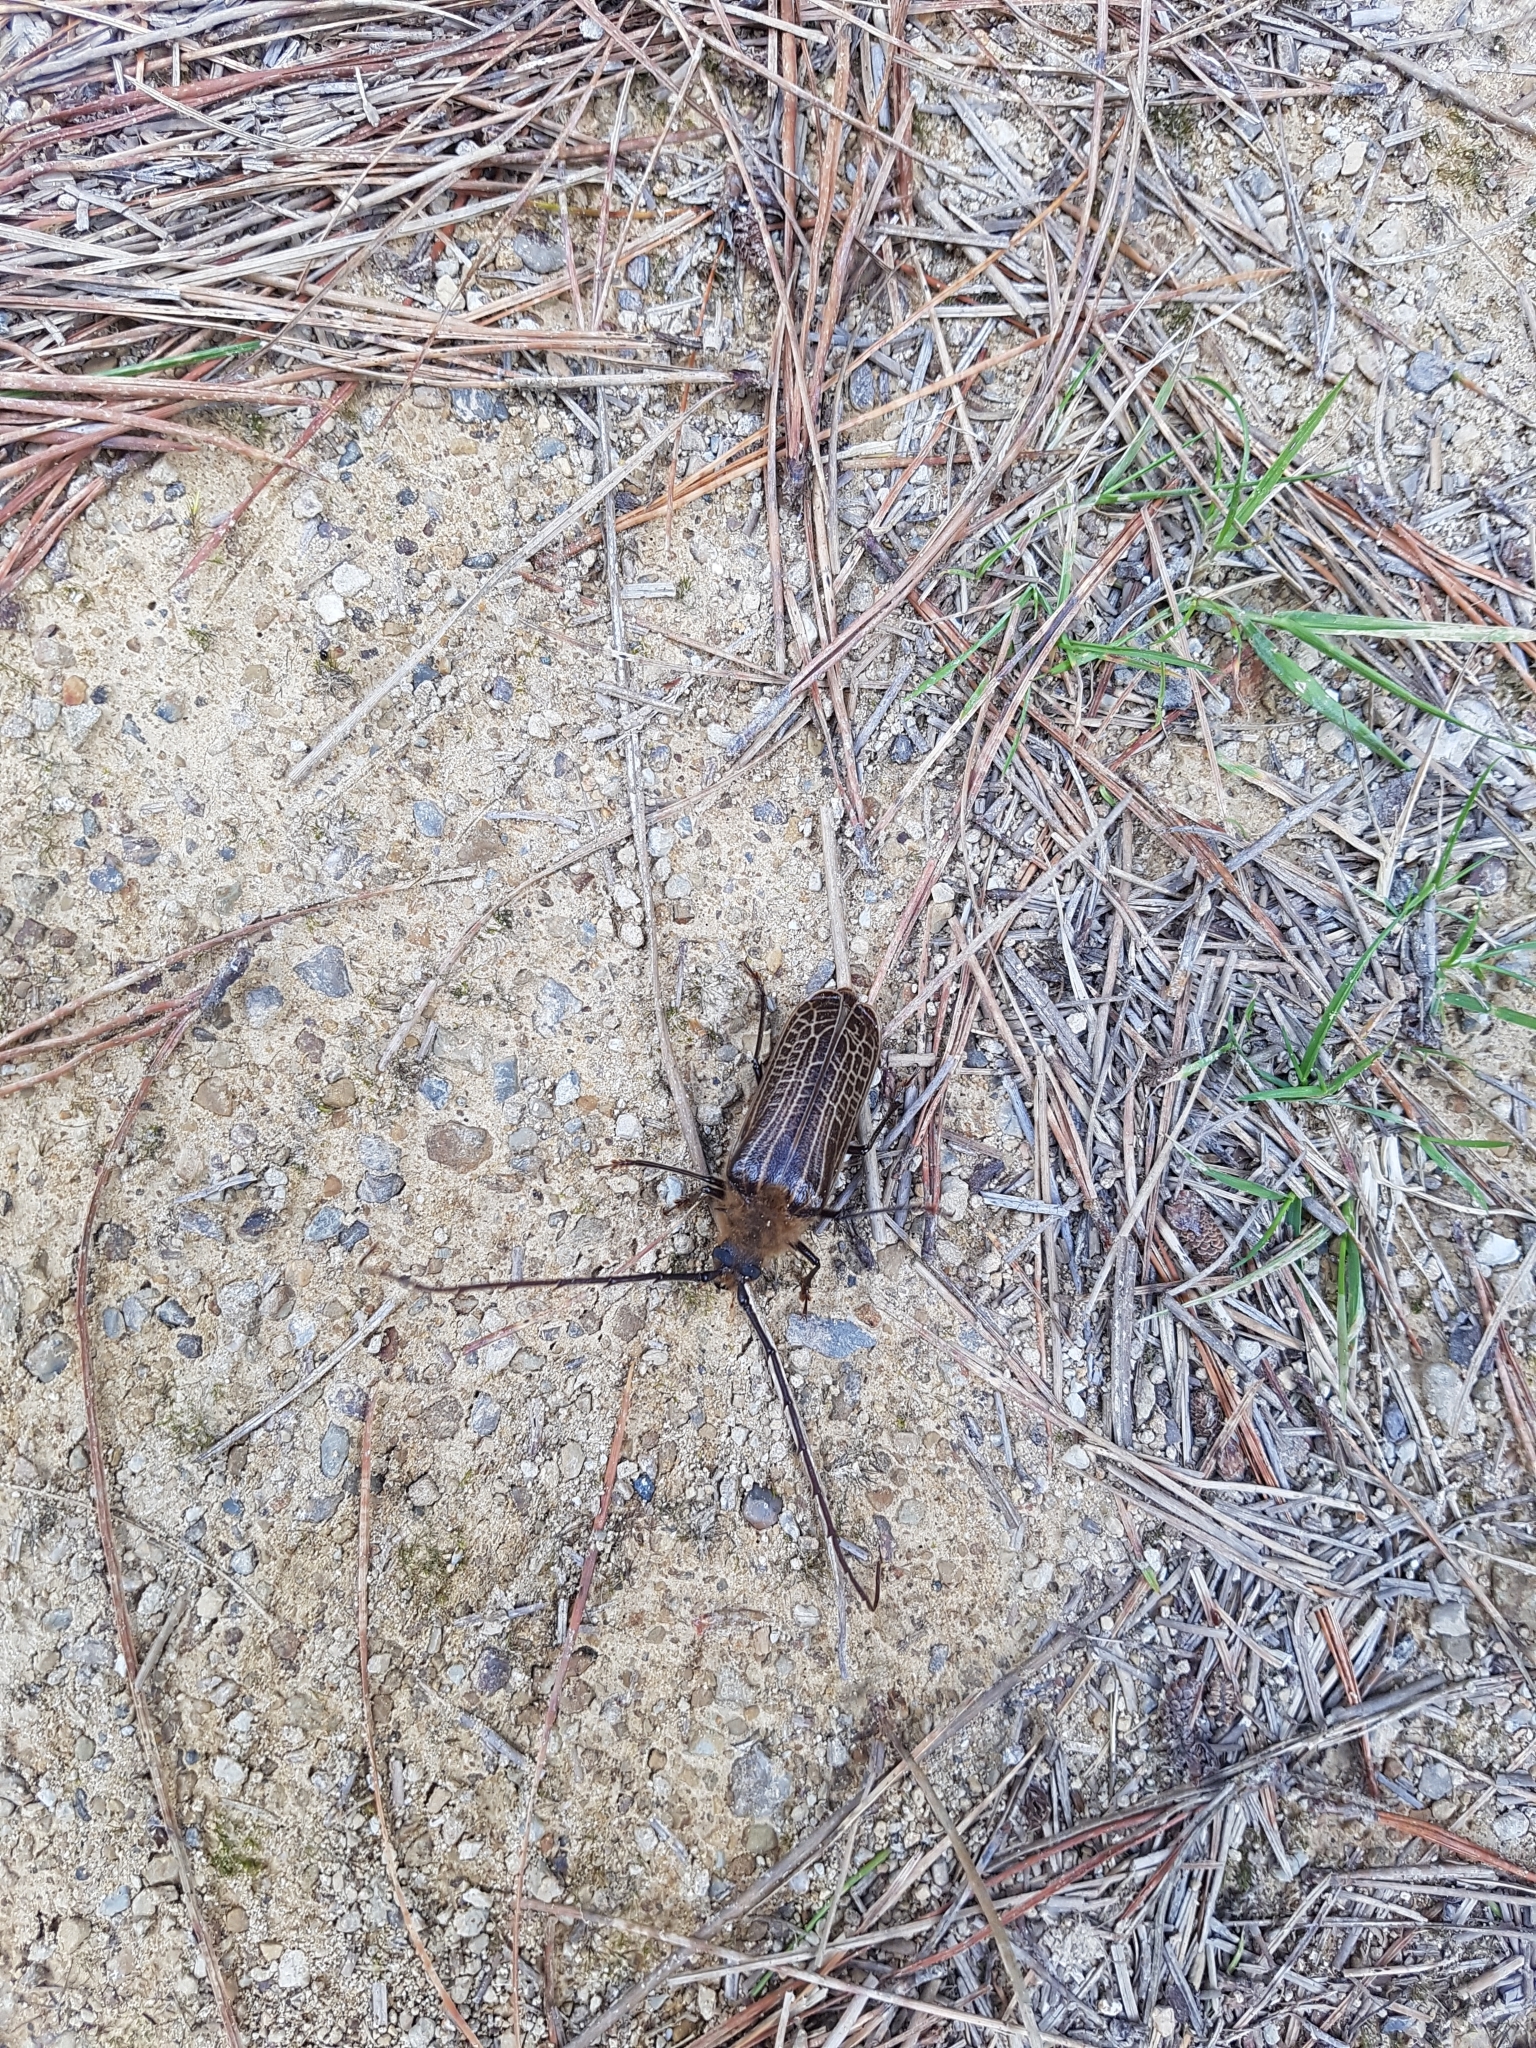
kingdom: Animalia
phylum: Arthropoda
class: Insecta
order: Coleoptera
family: Cerambycidae
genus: Prionoplus
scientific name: Prionoplus reticularis
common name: Huhu beetle
